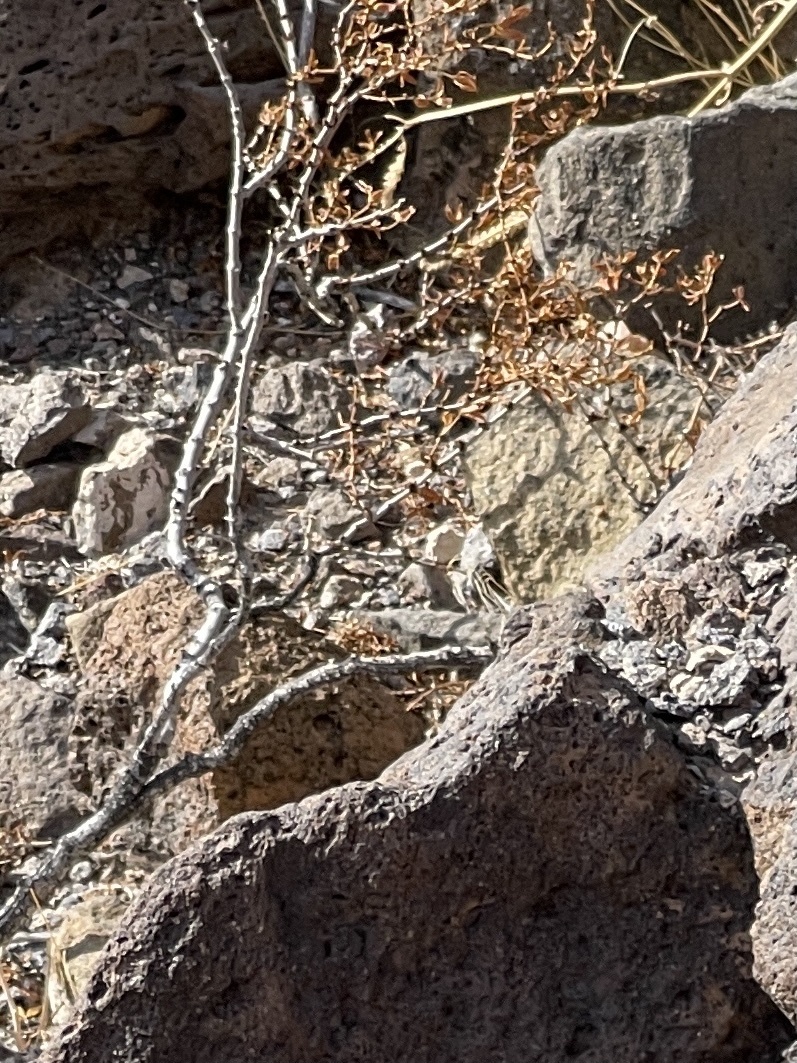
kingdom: Plantae
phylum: Tracheophyta
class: Magnoliopsida
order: Zygophyllales
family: Zygophyllaceae
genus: Larrea
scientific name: Larrea tridentata
